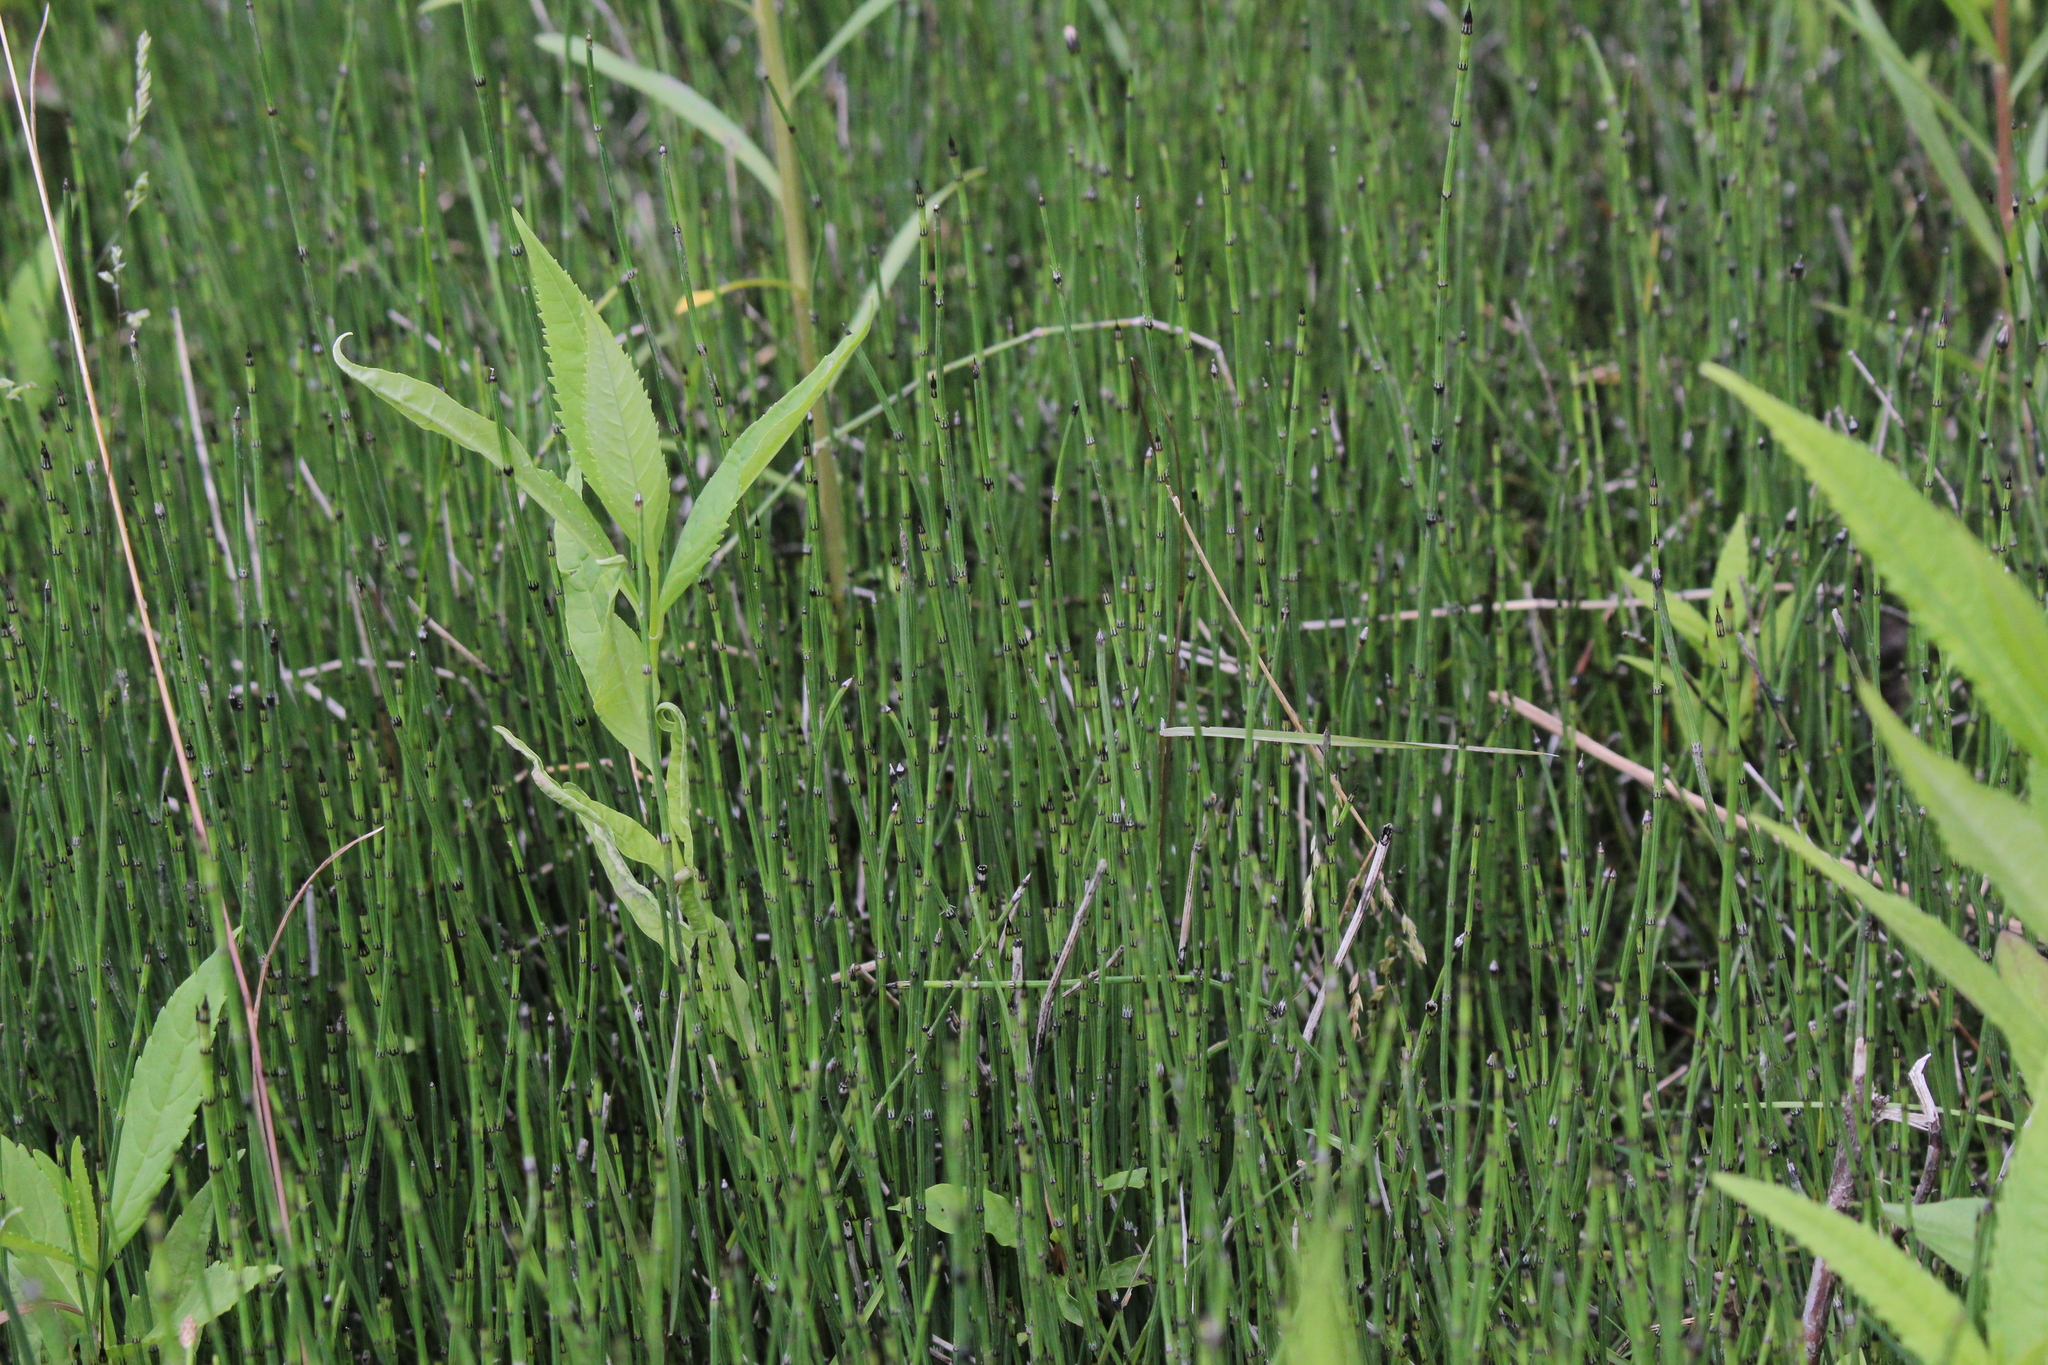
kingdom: Plantae
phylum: Tracheophyta
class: Polypodiopsida
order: Equisetales
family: Equisetaceae
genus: Equisetum
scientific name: Equisetum variegatum
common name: Variegated horsetail
